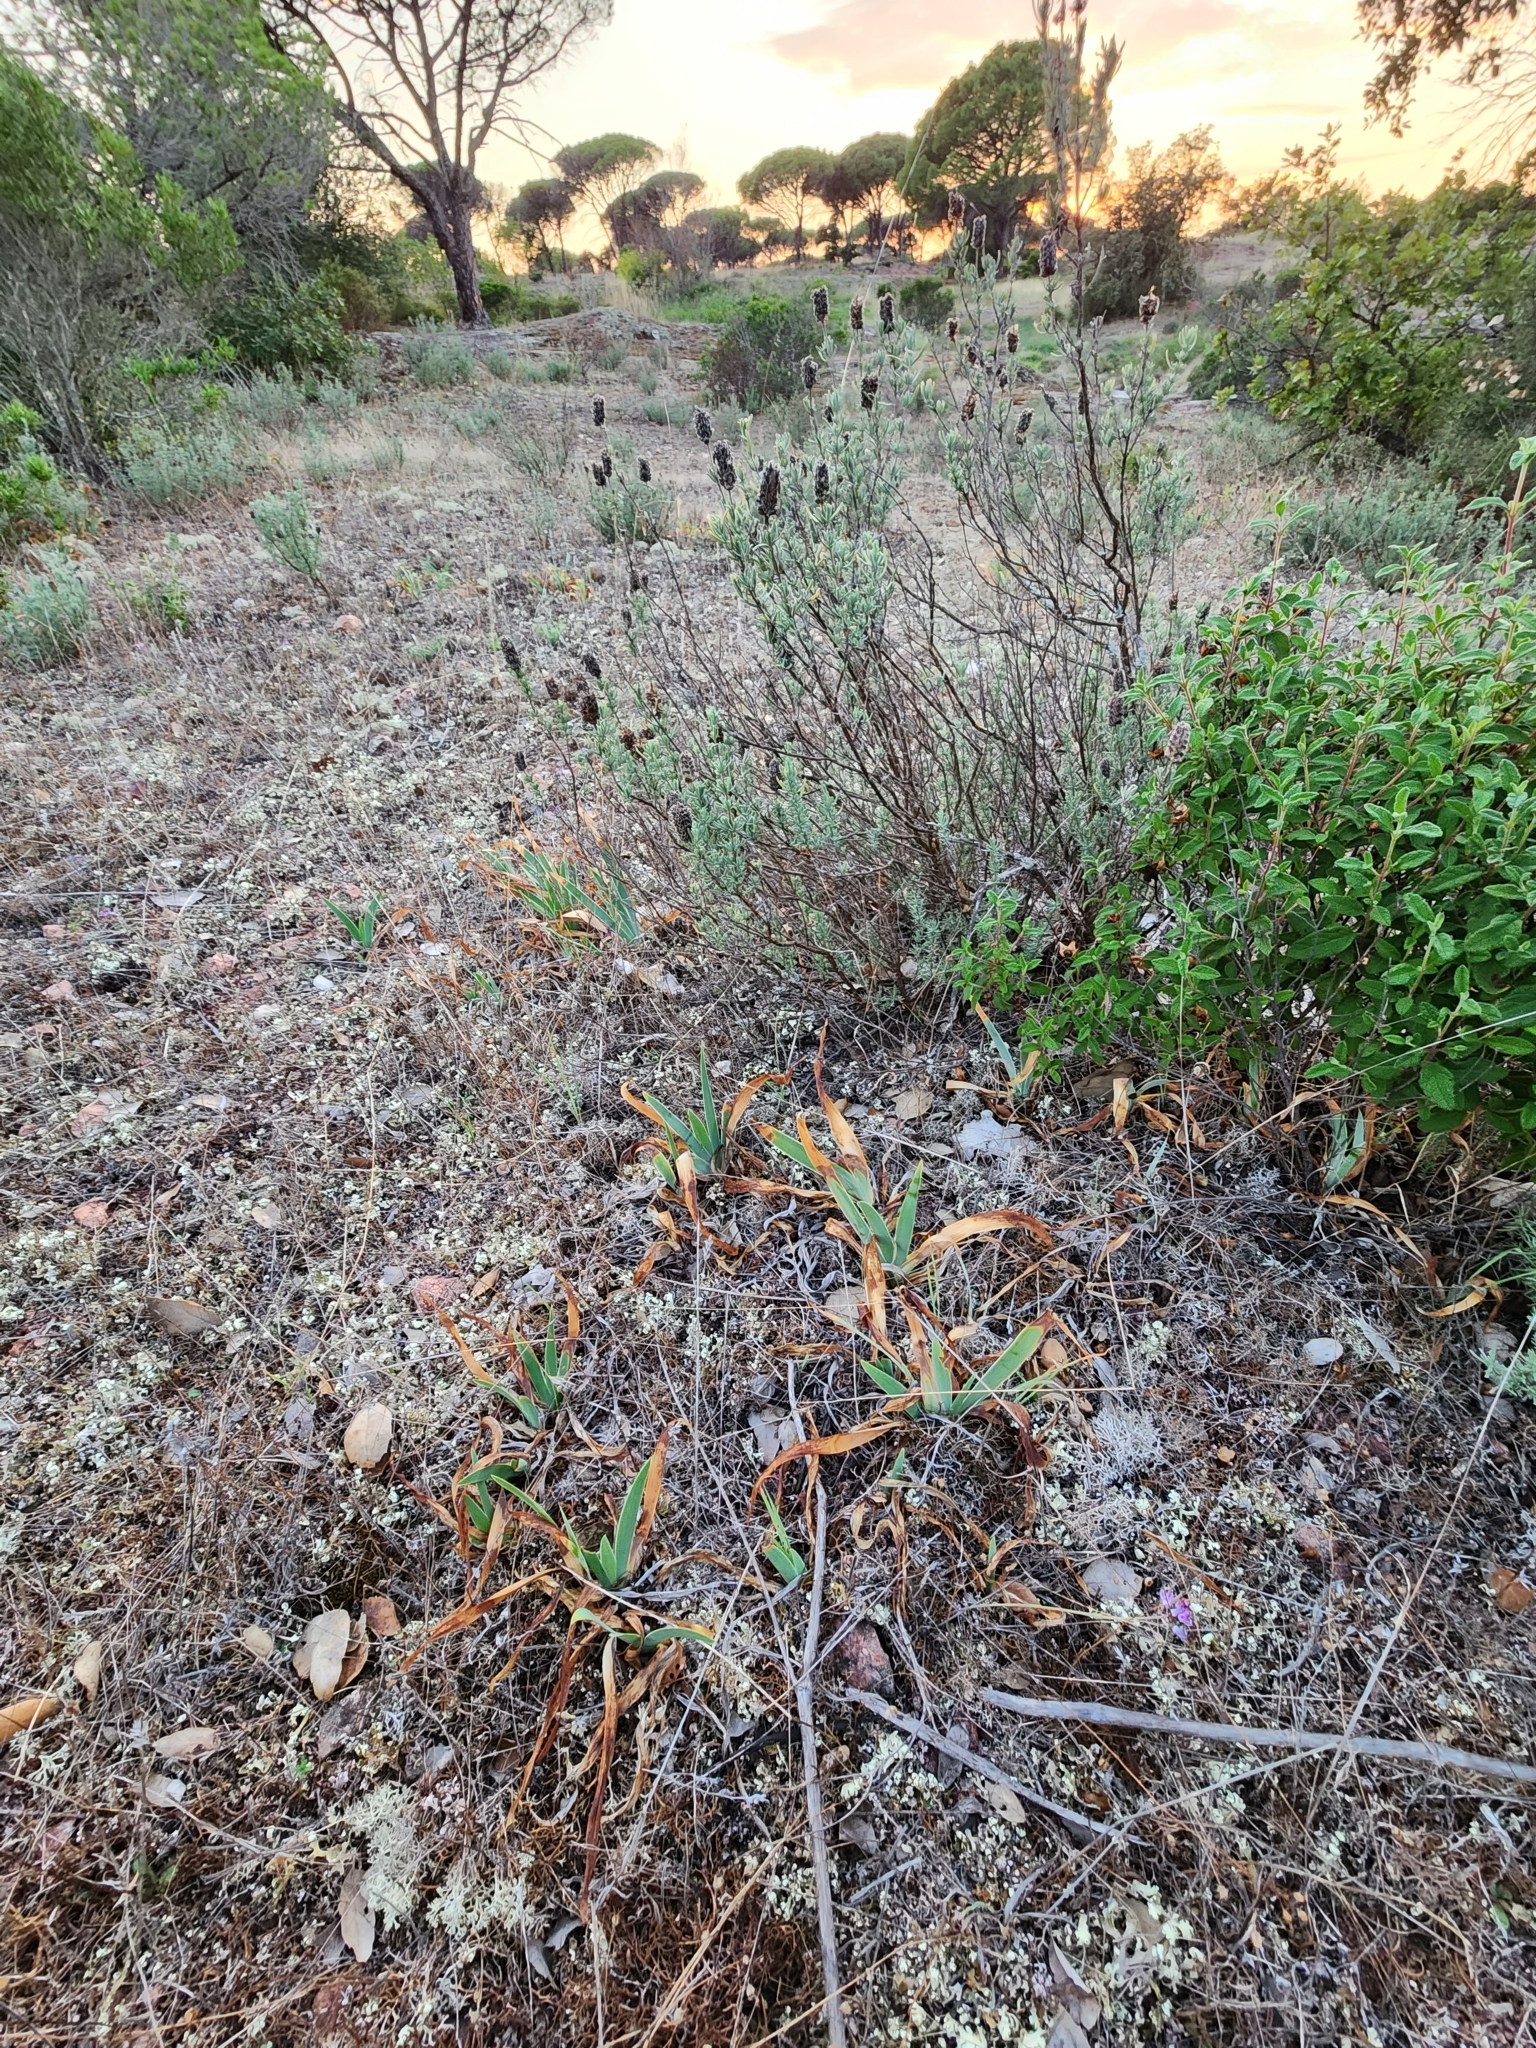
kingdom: Plantae
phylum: Tracheophyta
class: Liliopsida
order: Asparagales
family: Iridaceae
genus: Iris
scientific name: Iris lutescens
